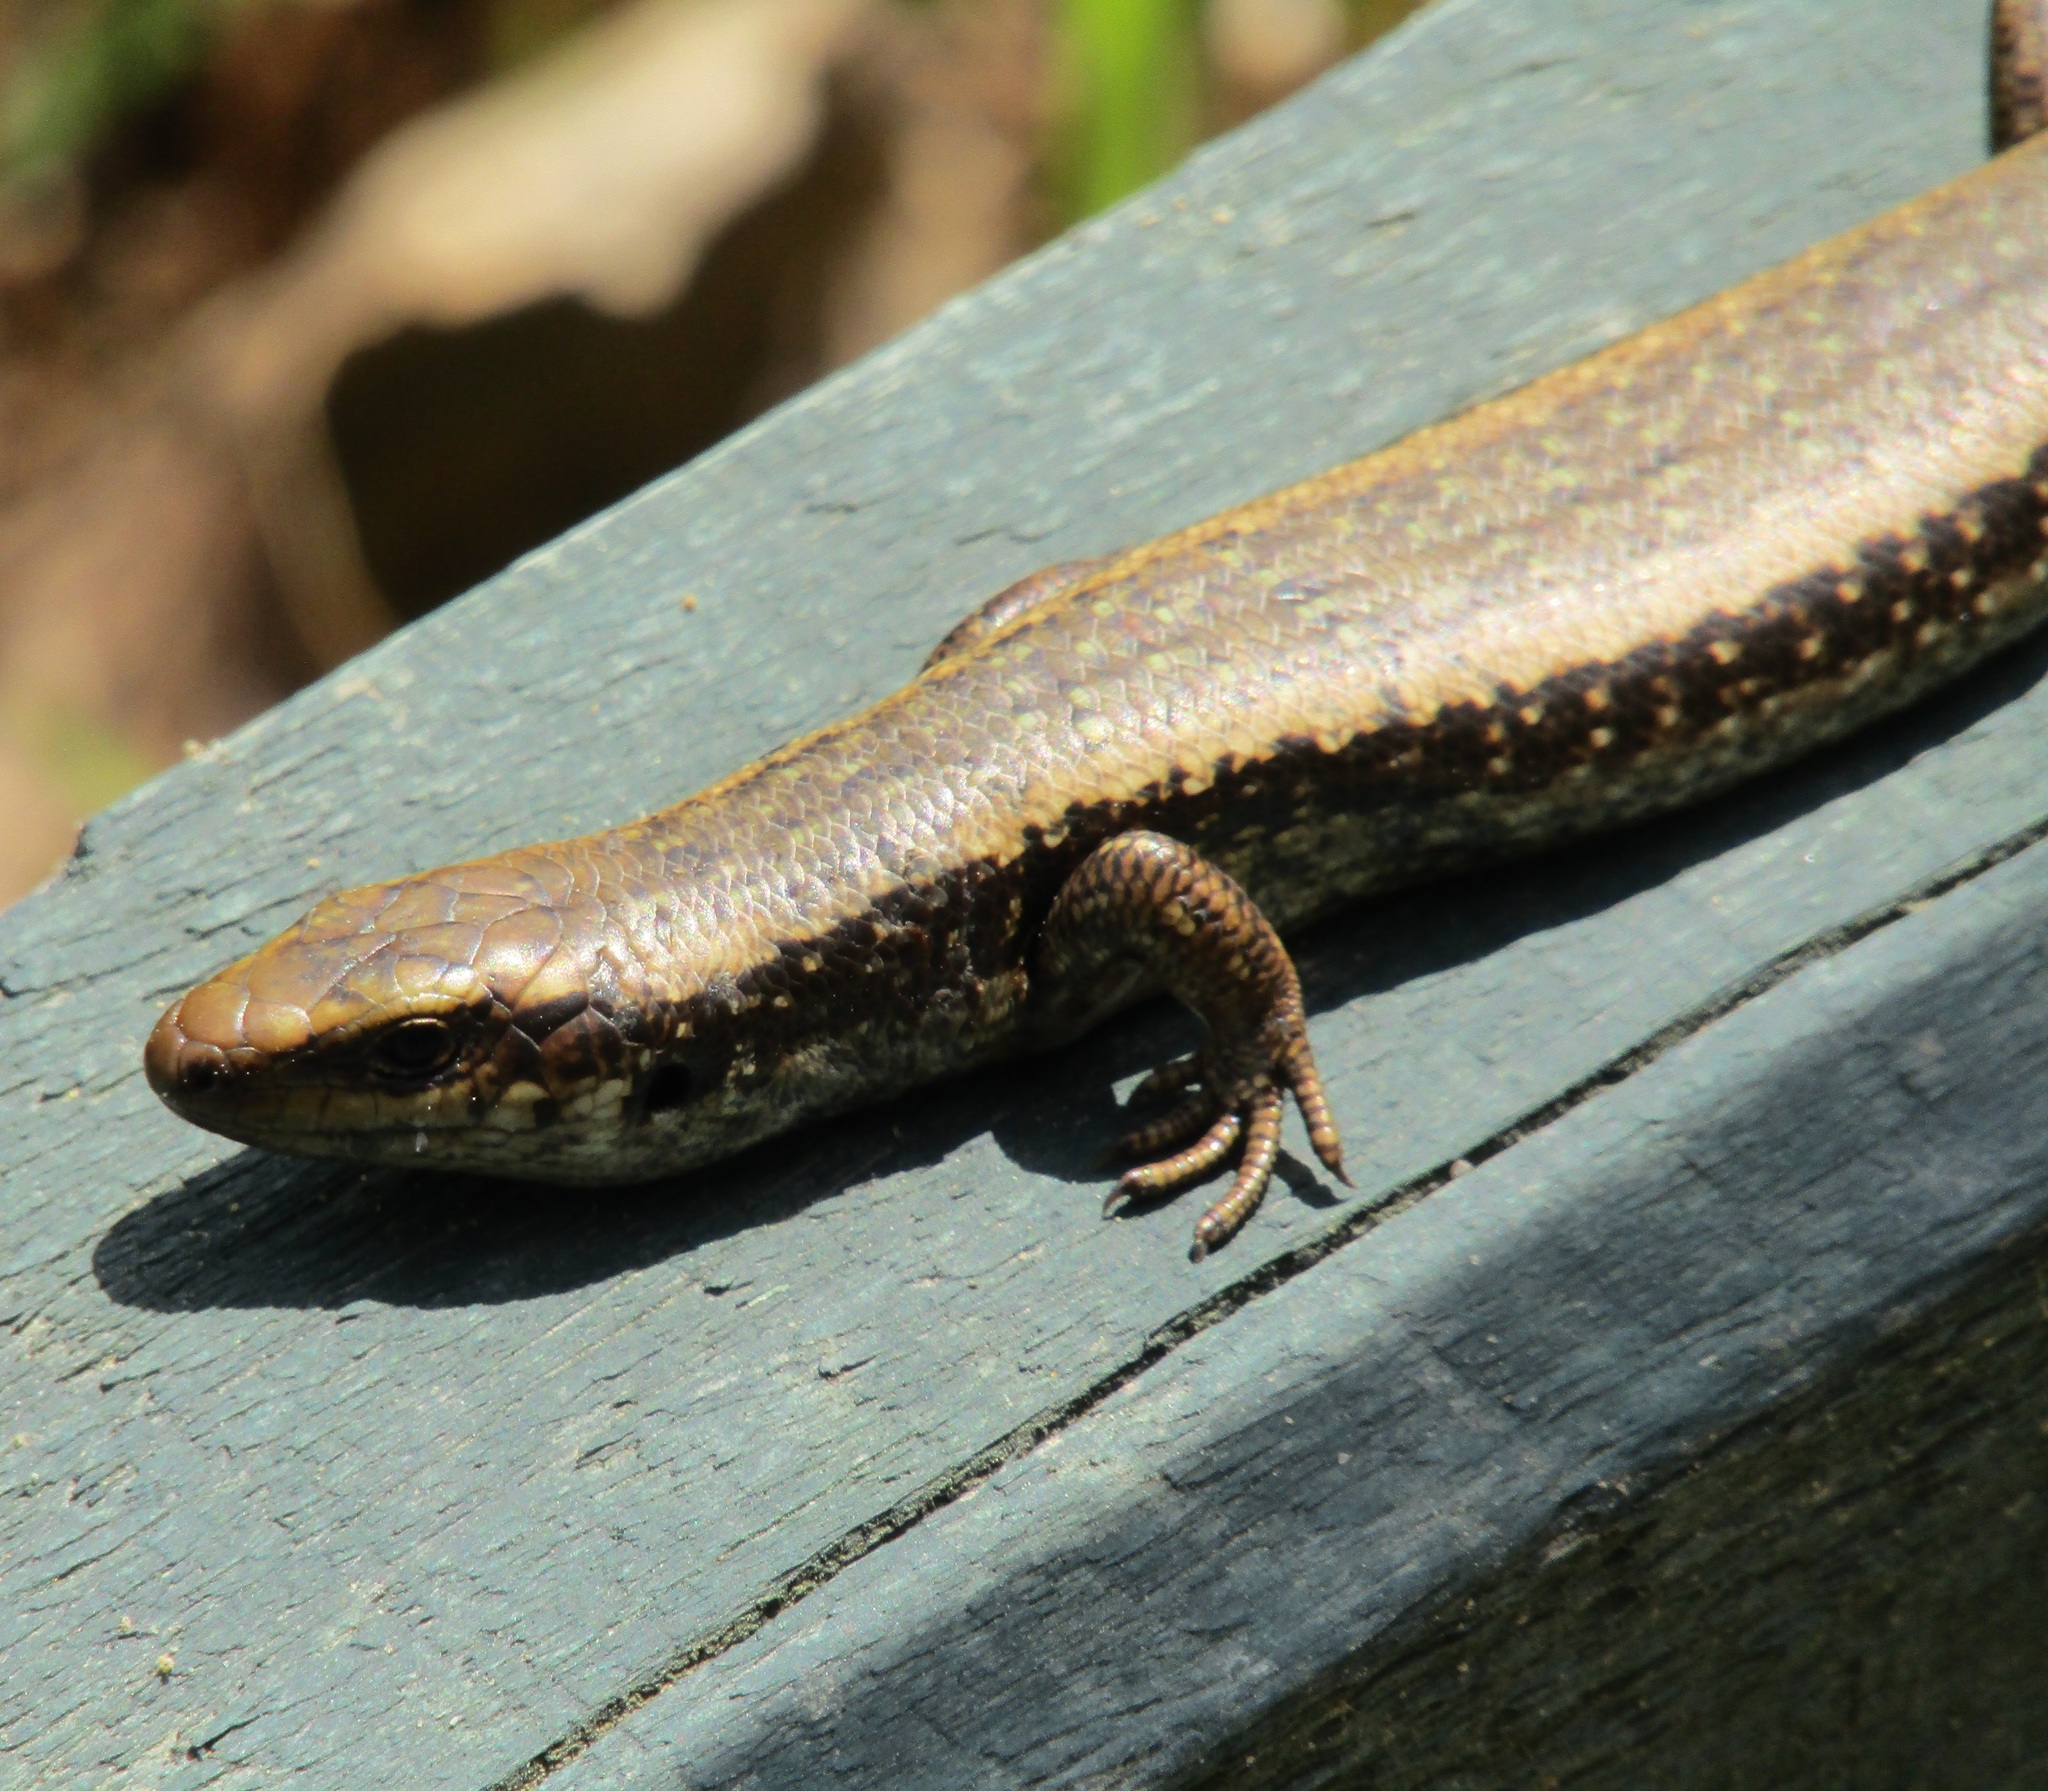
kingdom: Animalia
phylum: Chordata
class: Squamata
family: Scincidae
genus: Oligosoma
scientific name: Oligosoma kokowai
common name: Northern spotted skink
